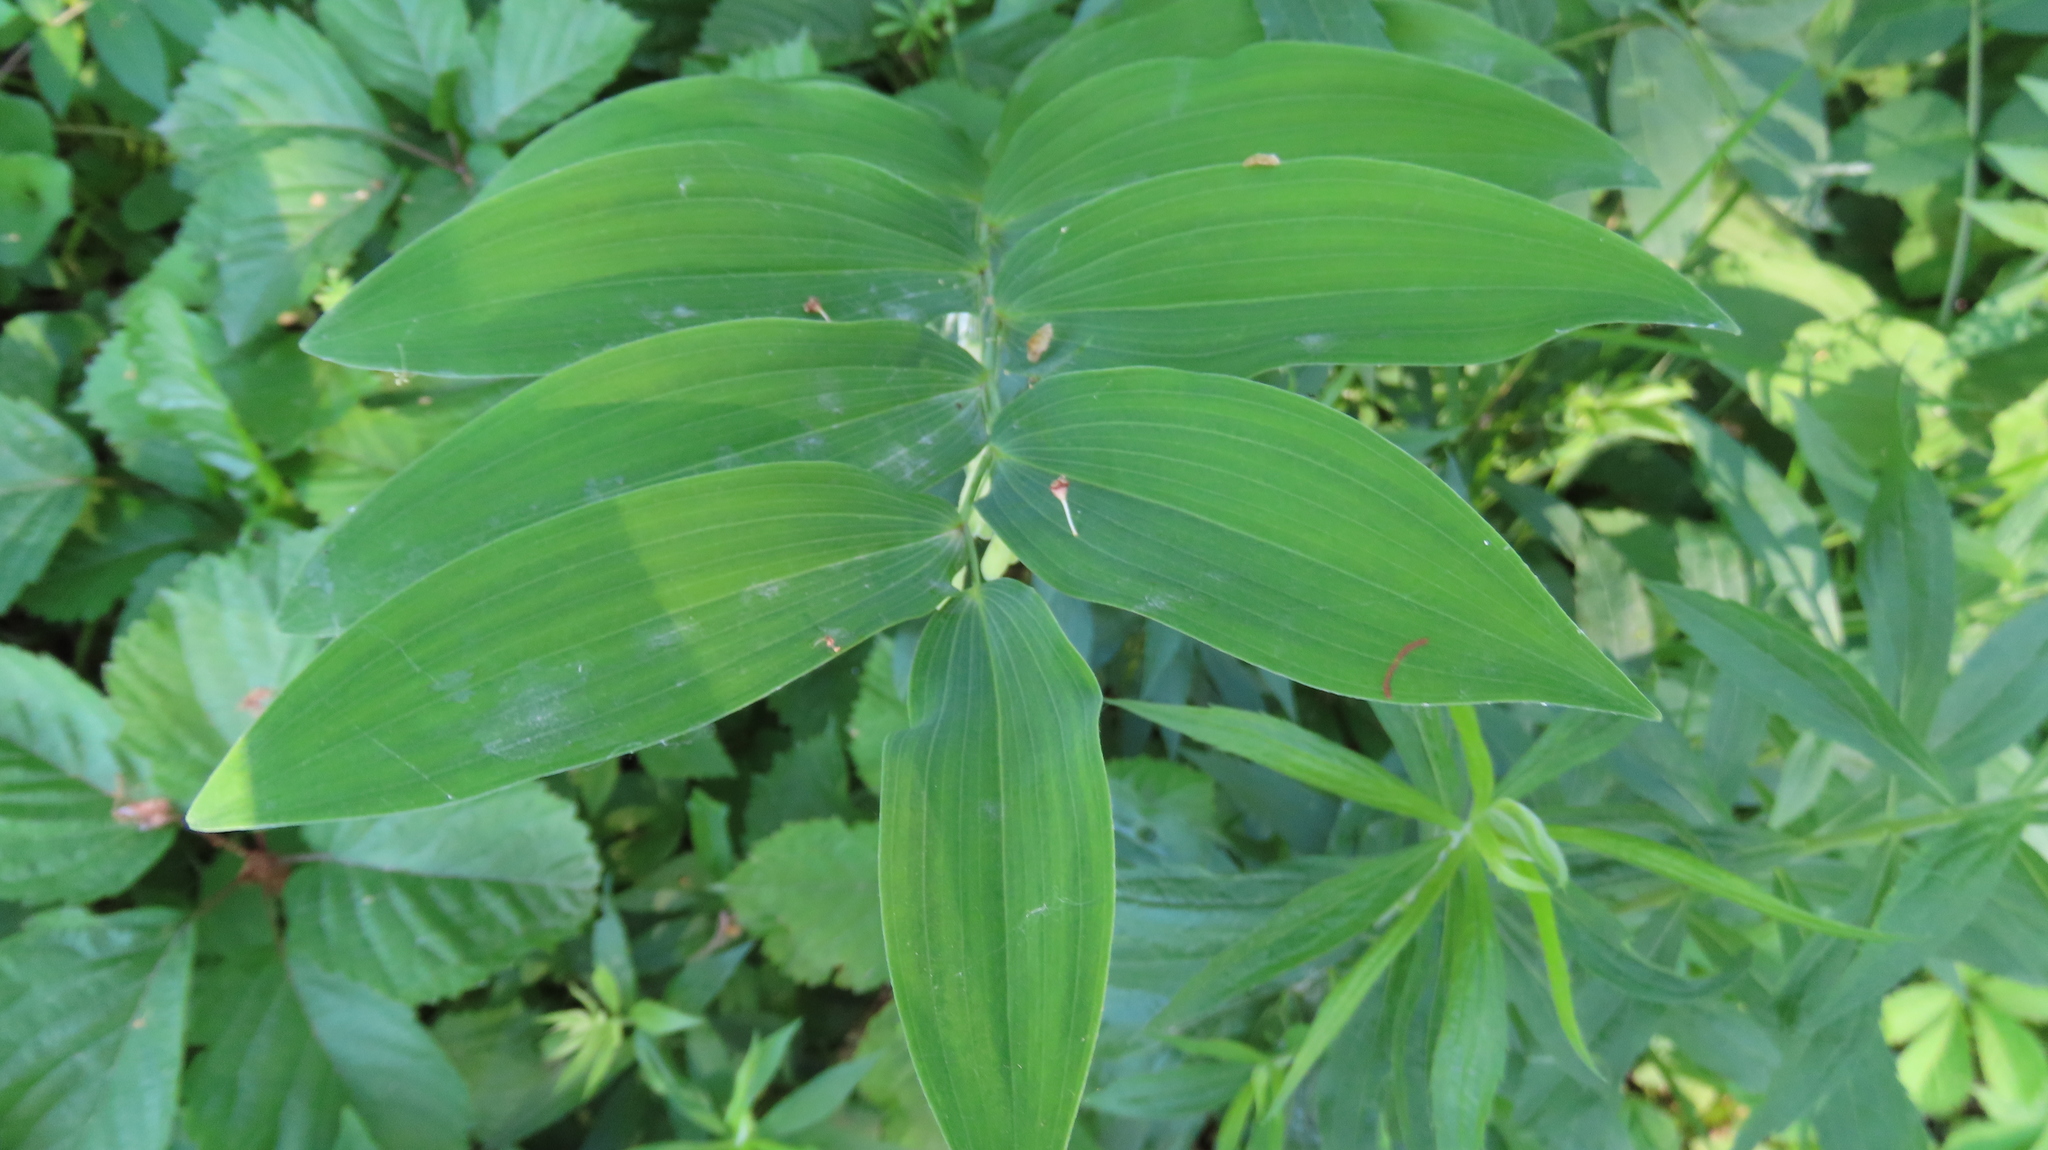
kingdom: Plantae
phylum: Tracheophyta
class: Liliopsida
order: Asparagales
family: Asparagaceae
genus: Polygonatum
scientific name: Polygonatum biflorum
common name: American solomon's-seal
